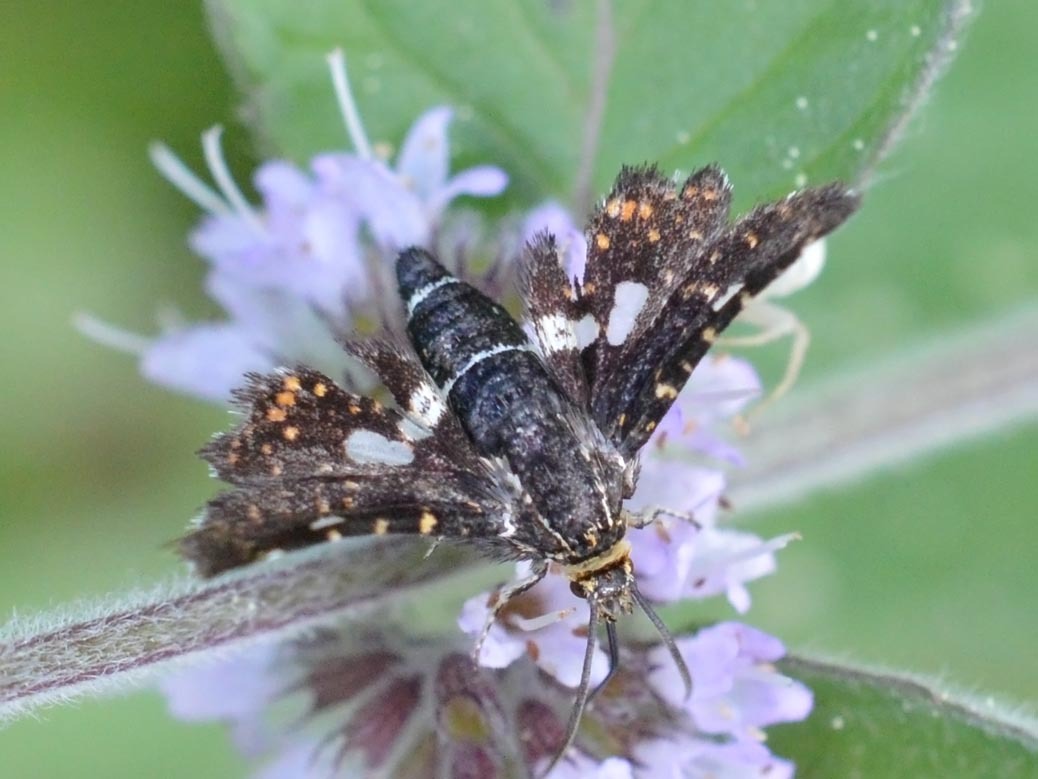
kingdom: Animalia
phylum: Arthropoda
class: Insecta
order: Lepidoptera
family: Thyrididae
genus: Thyris
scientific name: Thyris fenestrella
